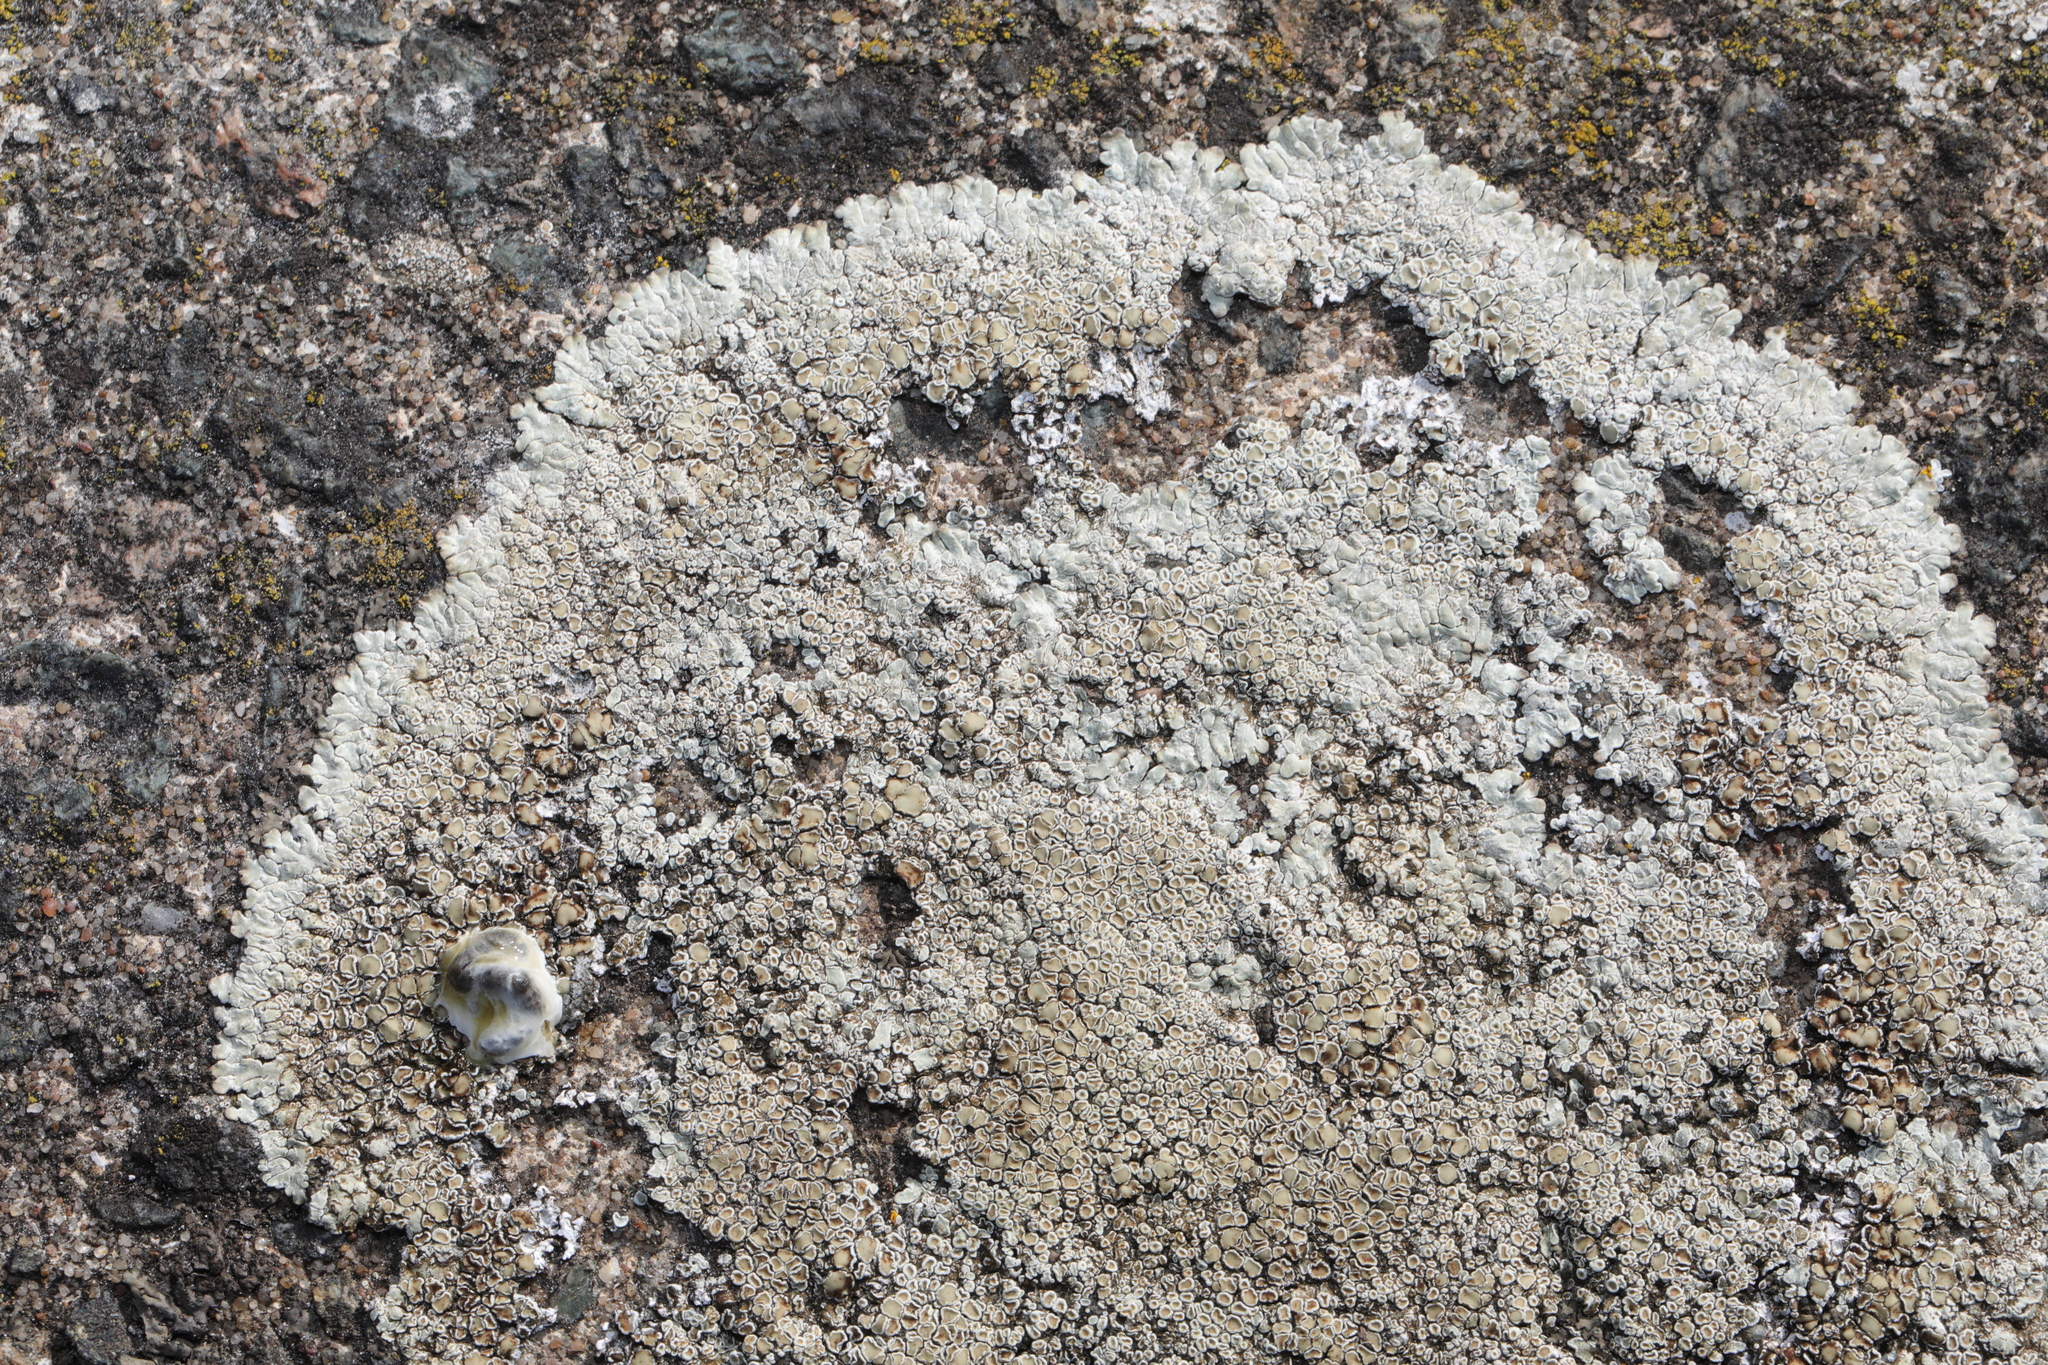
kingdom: Fungi
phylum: Ascomycota
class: Lecanoromycetes
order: Lecanorales
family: Lecanoraceae
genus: Protoparmeliopsis
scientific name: Protoparmeliopsis muralis
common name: Stonewall rim lichen
